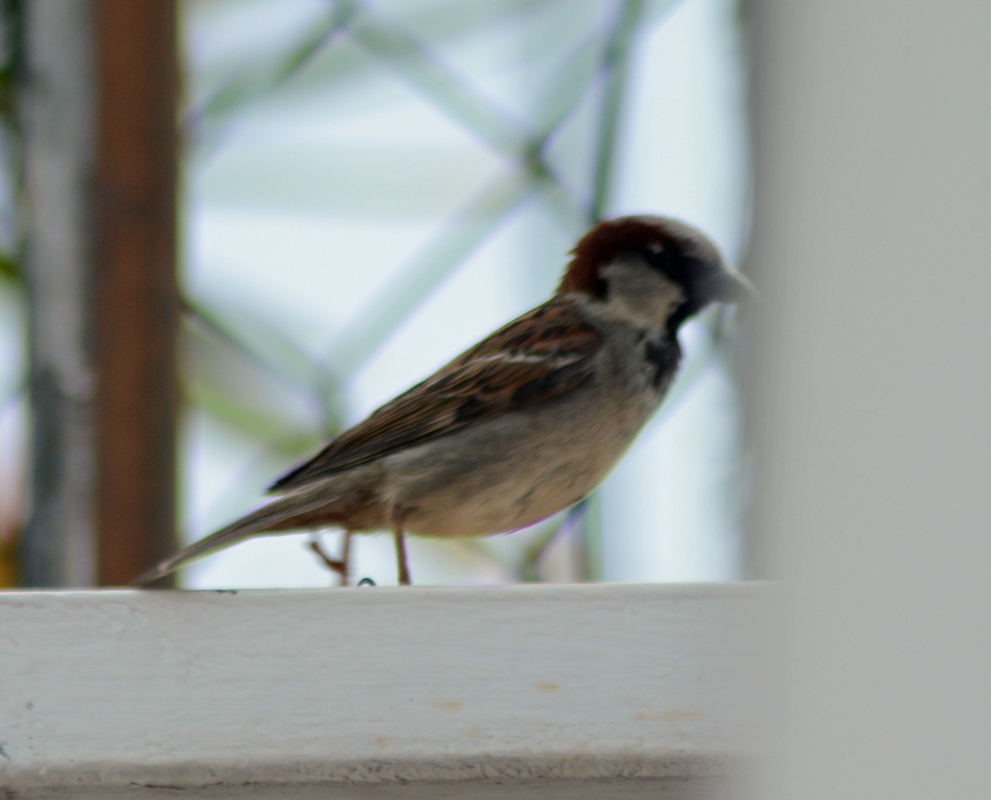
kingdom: Animalia
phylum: Chordata
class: Aves
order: Passeriformes
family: Passeridae
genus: Passer
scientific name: Passer domesticus
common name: House sparrow
